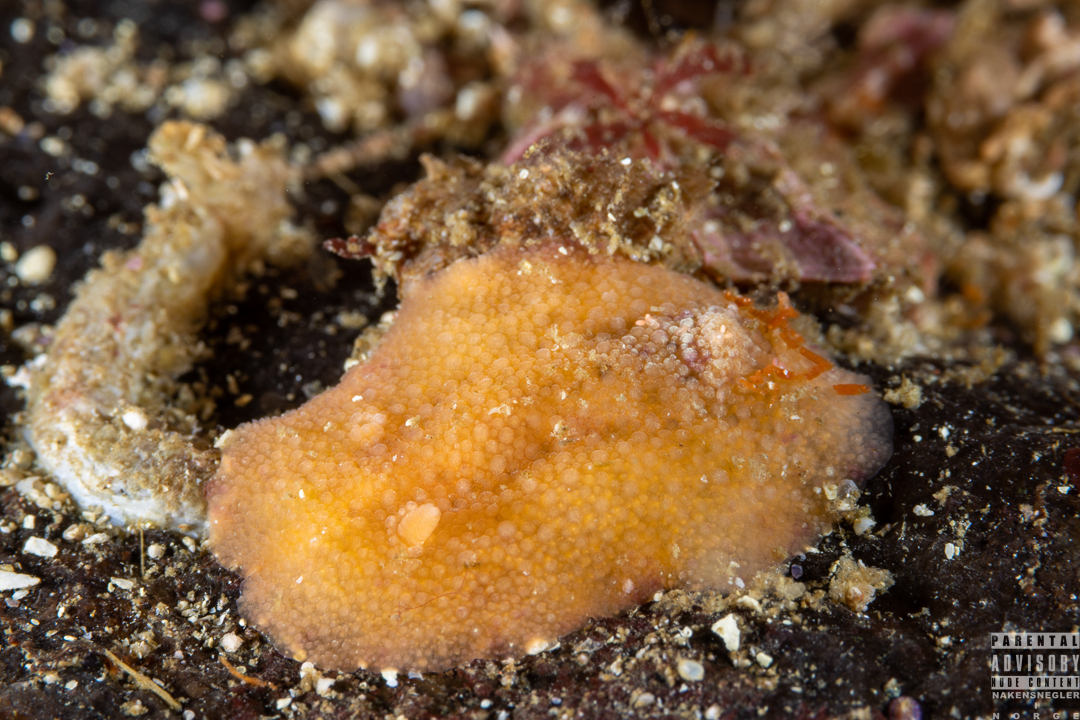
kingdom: Animalia
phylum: Mollusca
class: Gastropoda
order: Nudibranchia
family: Dorididae
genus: Doris
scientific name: Doris pseudoargus
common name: Sea lemon
